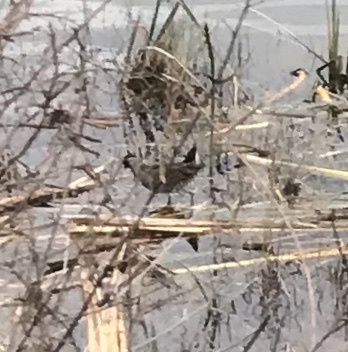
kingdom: Animalia
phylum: Chordata
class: Aves
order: Gruiformes
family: Rallidae
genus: Porzana
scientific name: Porzana carolina
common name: Sora
